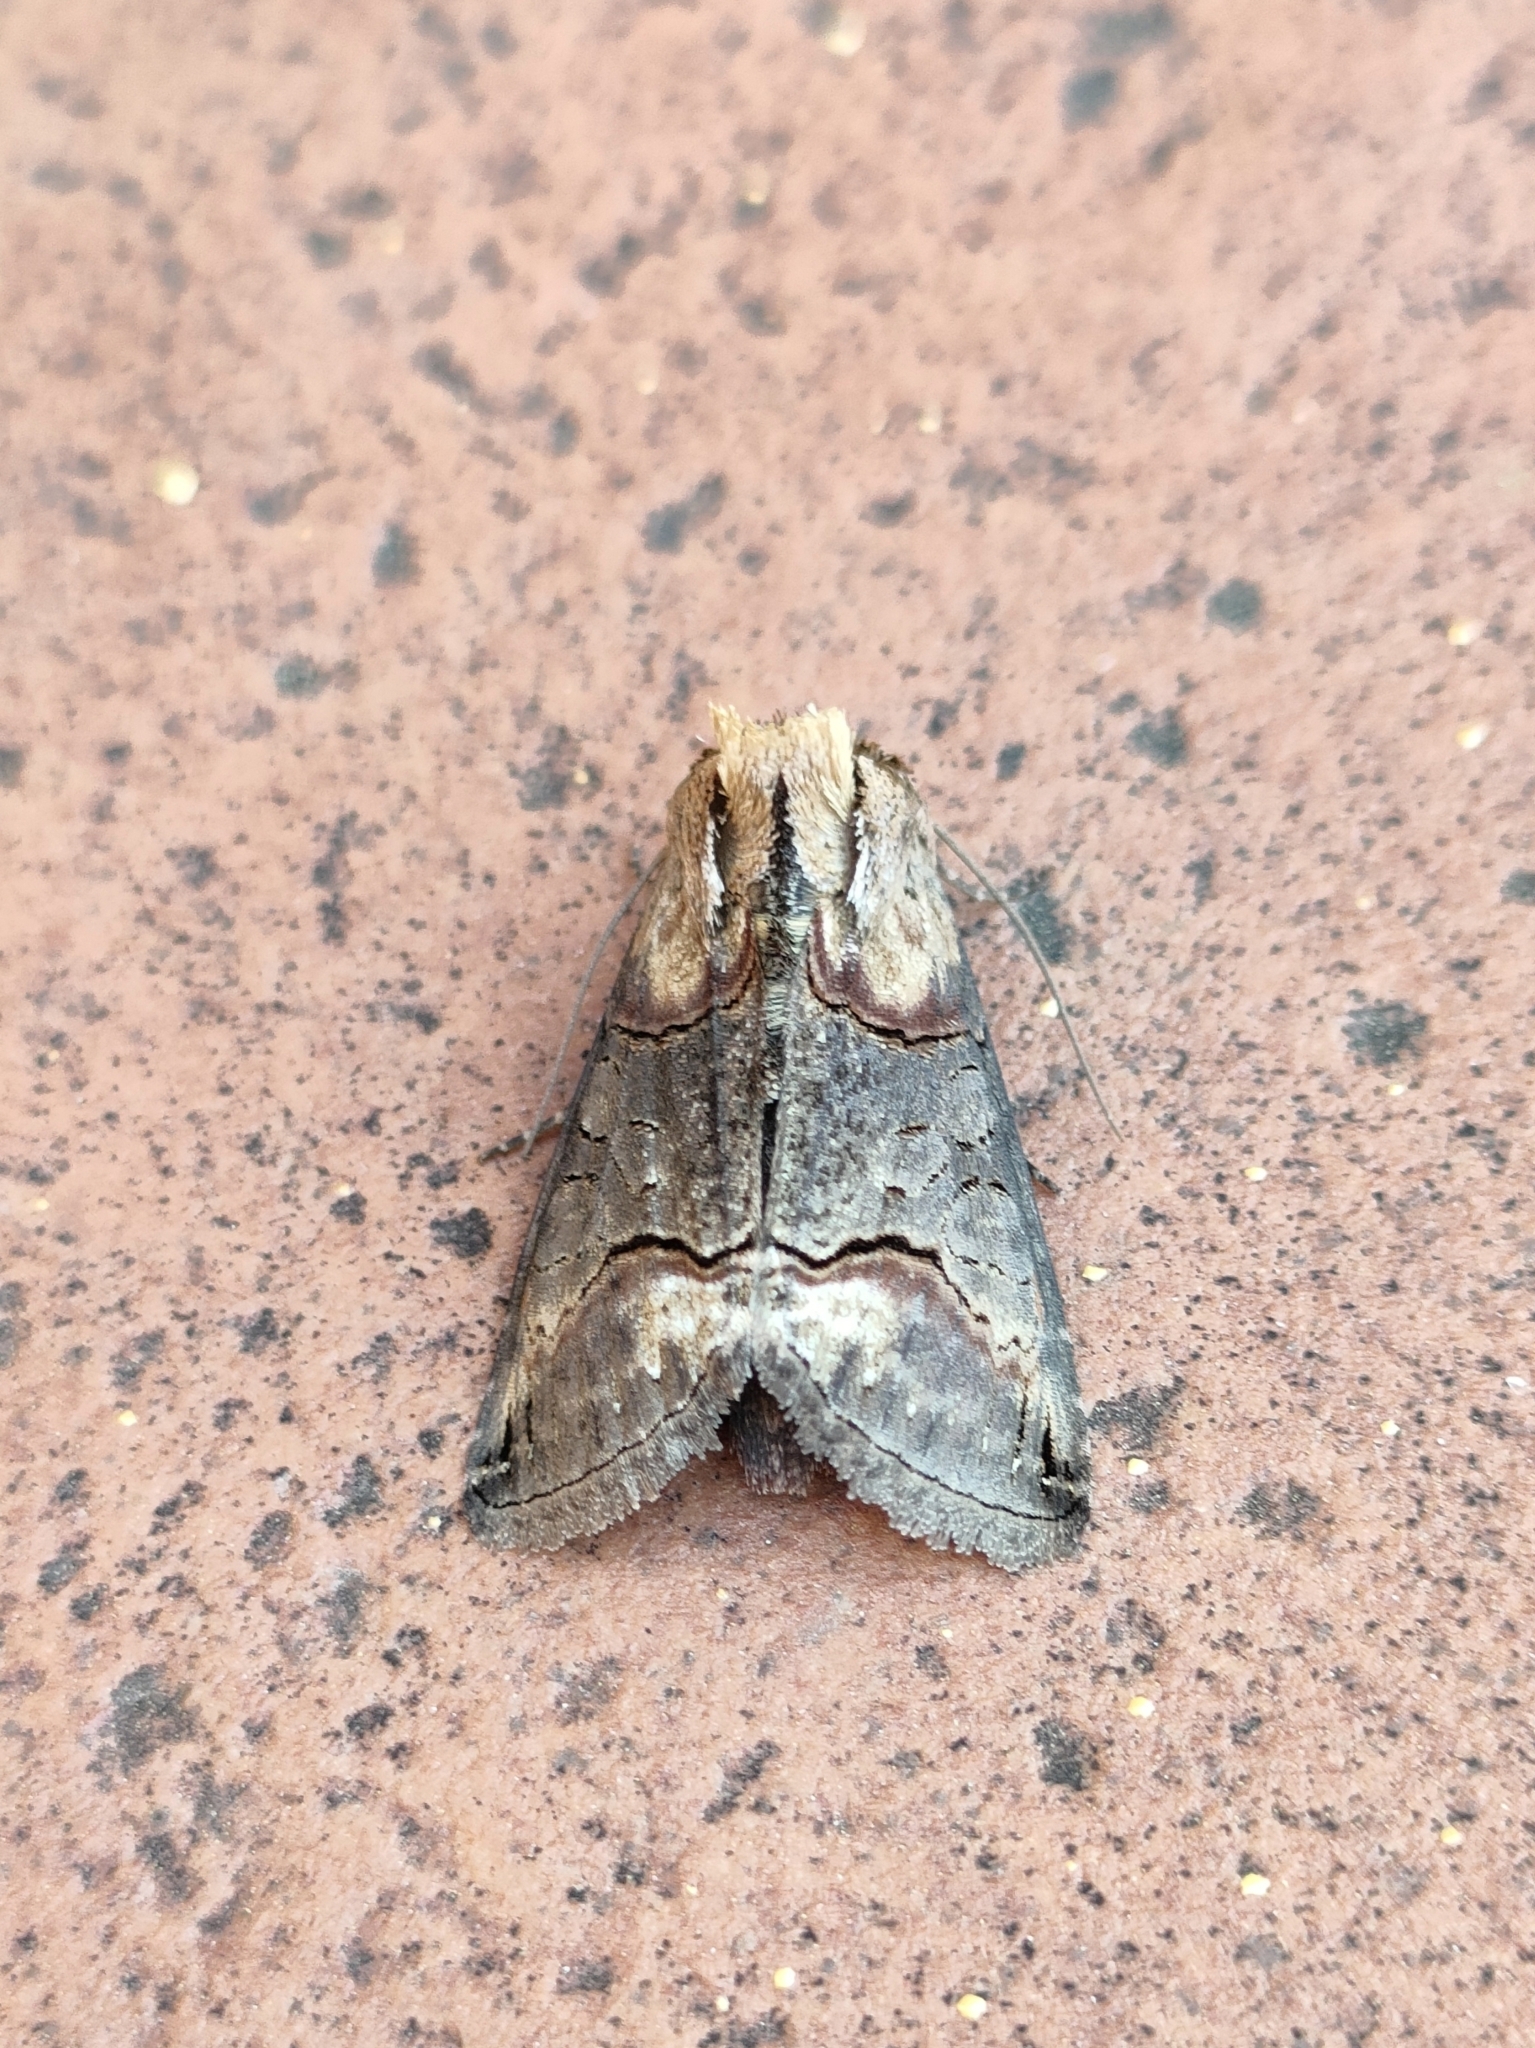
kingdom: Animalia
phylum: Arthropoda
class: Insecta
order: Lepidoptera
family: Noctuidae
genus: Abrostola
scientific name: Abrostola triplasia
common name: Dark spectacle
